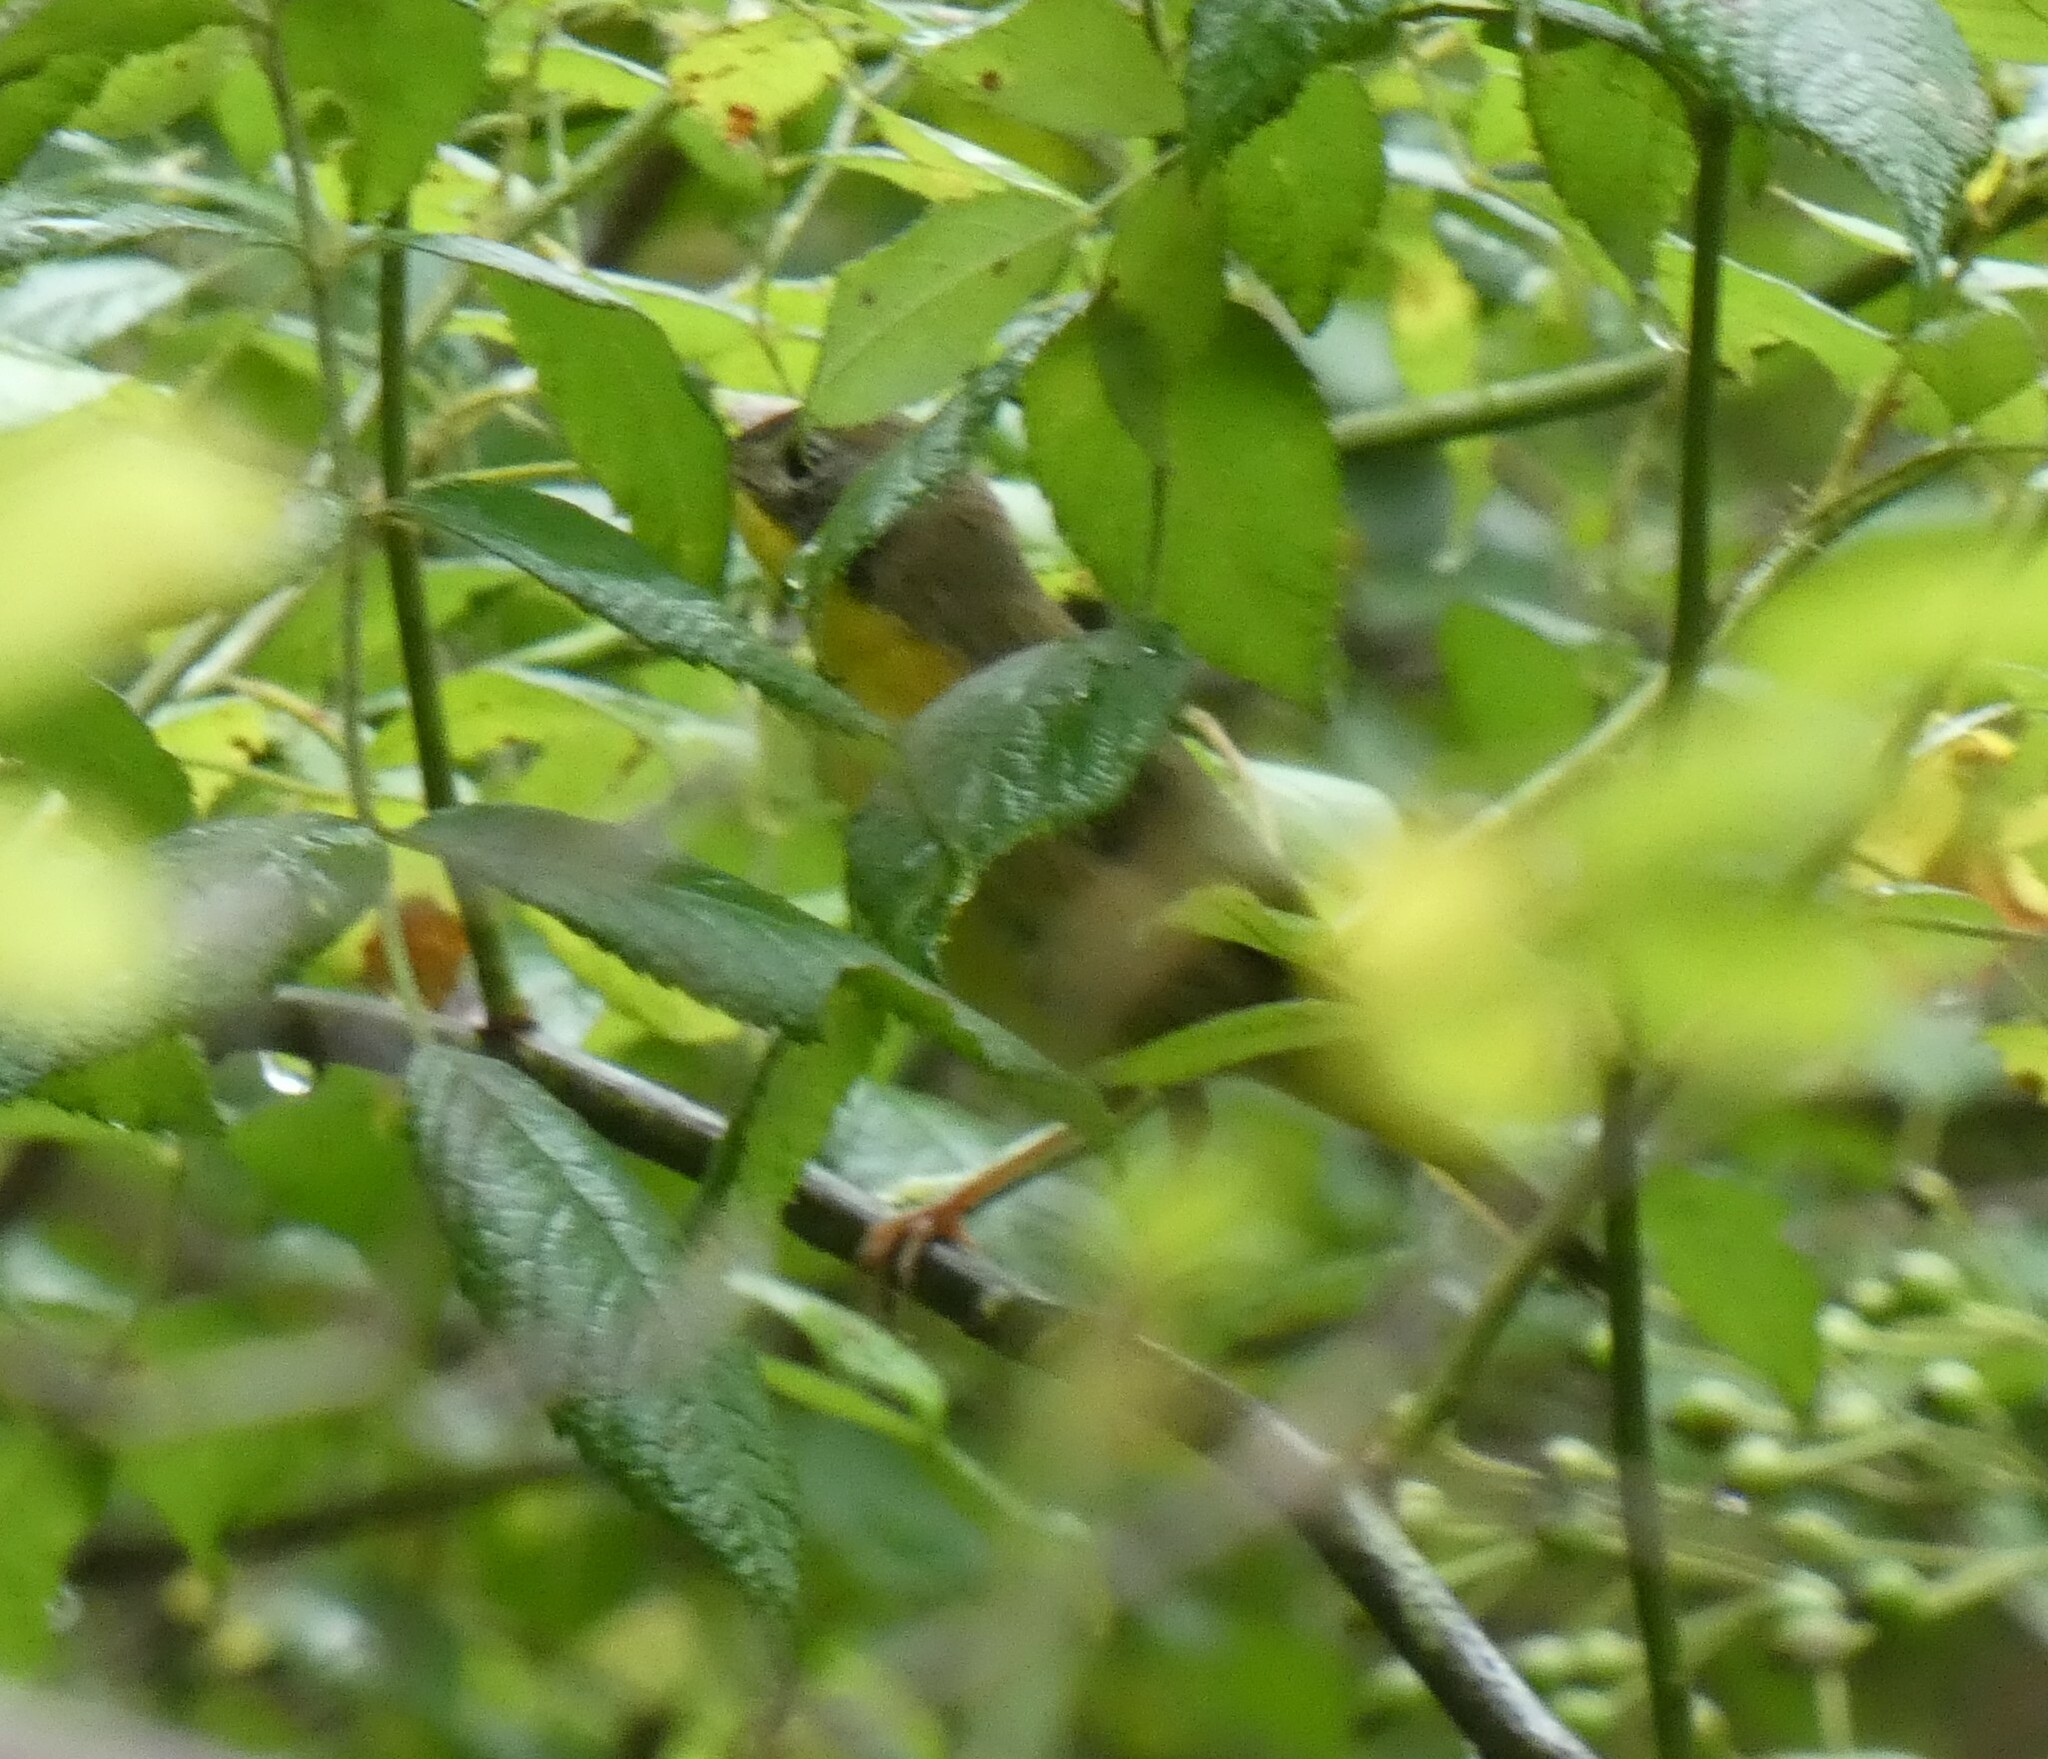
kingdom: Animalia
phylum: Chordata
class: Aves
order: Passeriformes
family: Parulidae
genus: Geothlypis
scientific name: Geothlypis trichas
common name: Common yellowthroat
